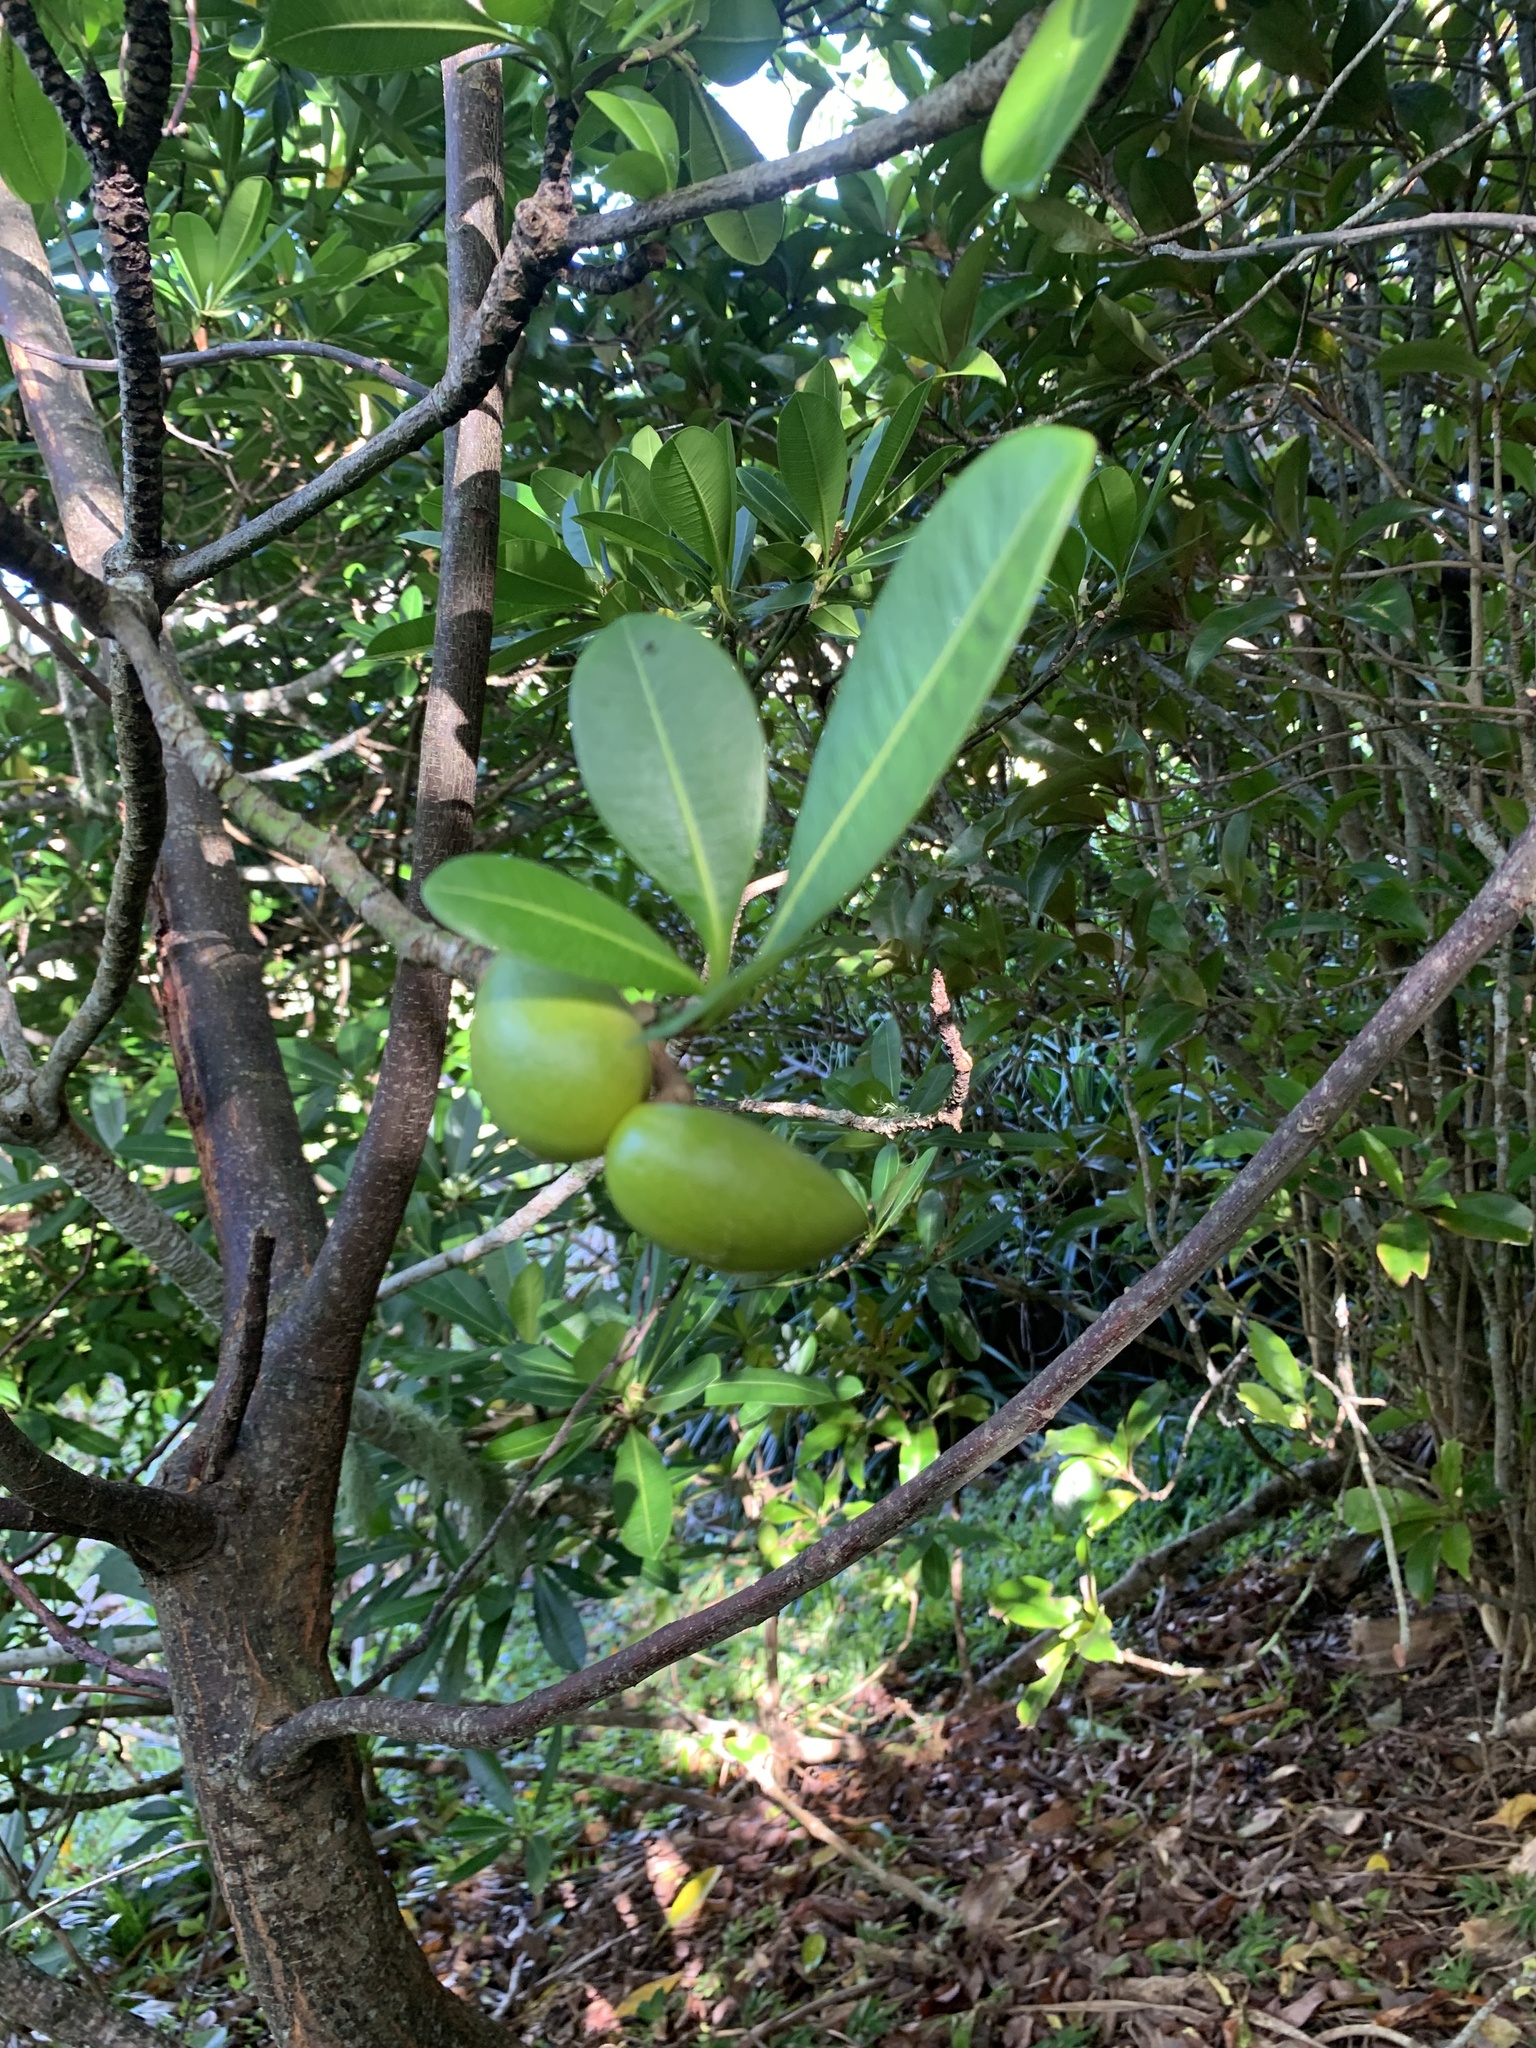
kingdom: Plantae
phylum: Tracheophyta
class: Magnoliopsida
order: Gentianales
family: Apocynaceae
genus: Ochrosia
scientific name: Ochrosia nakaiana
